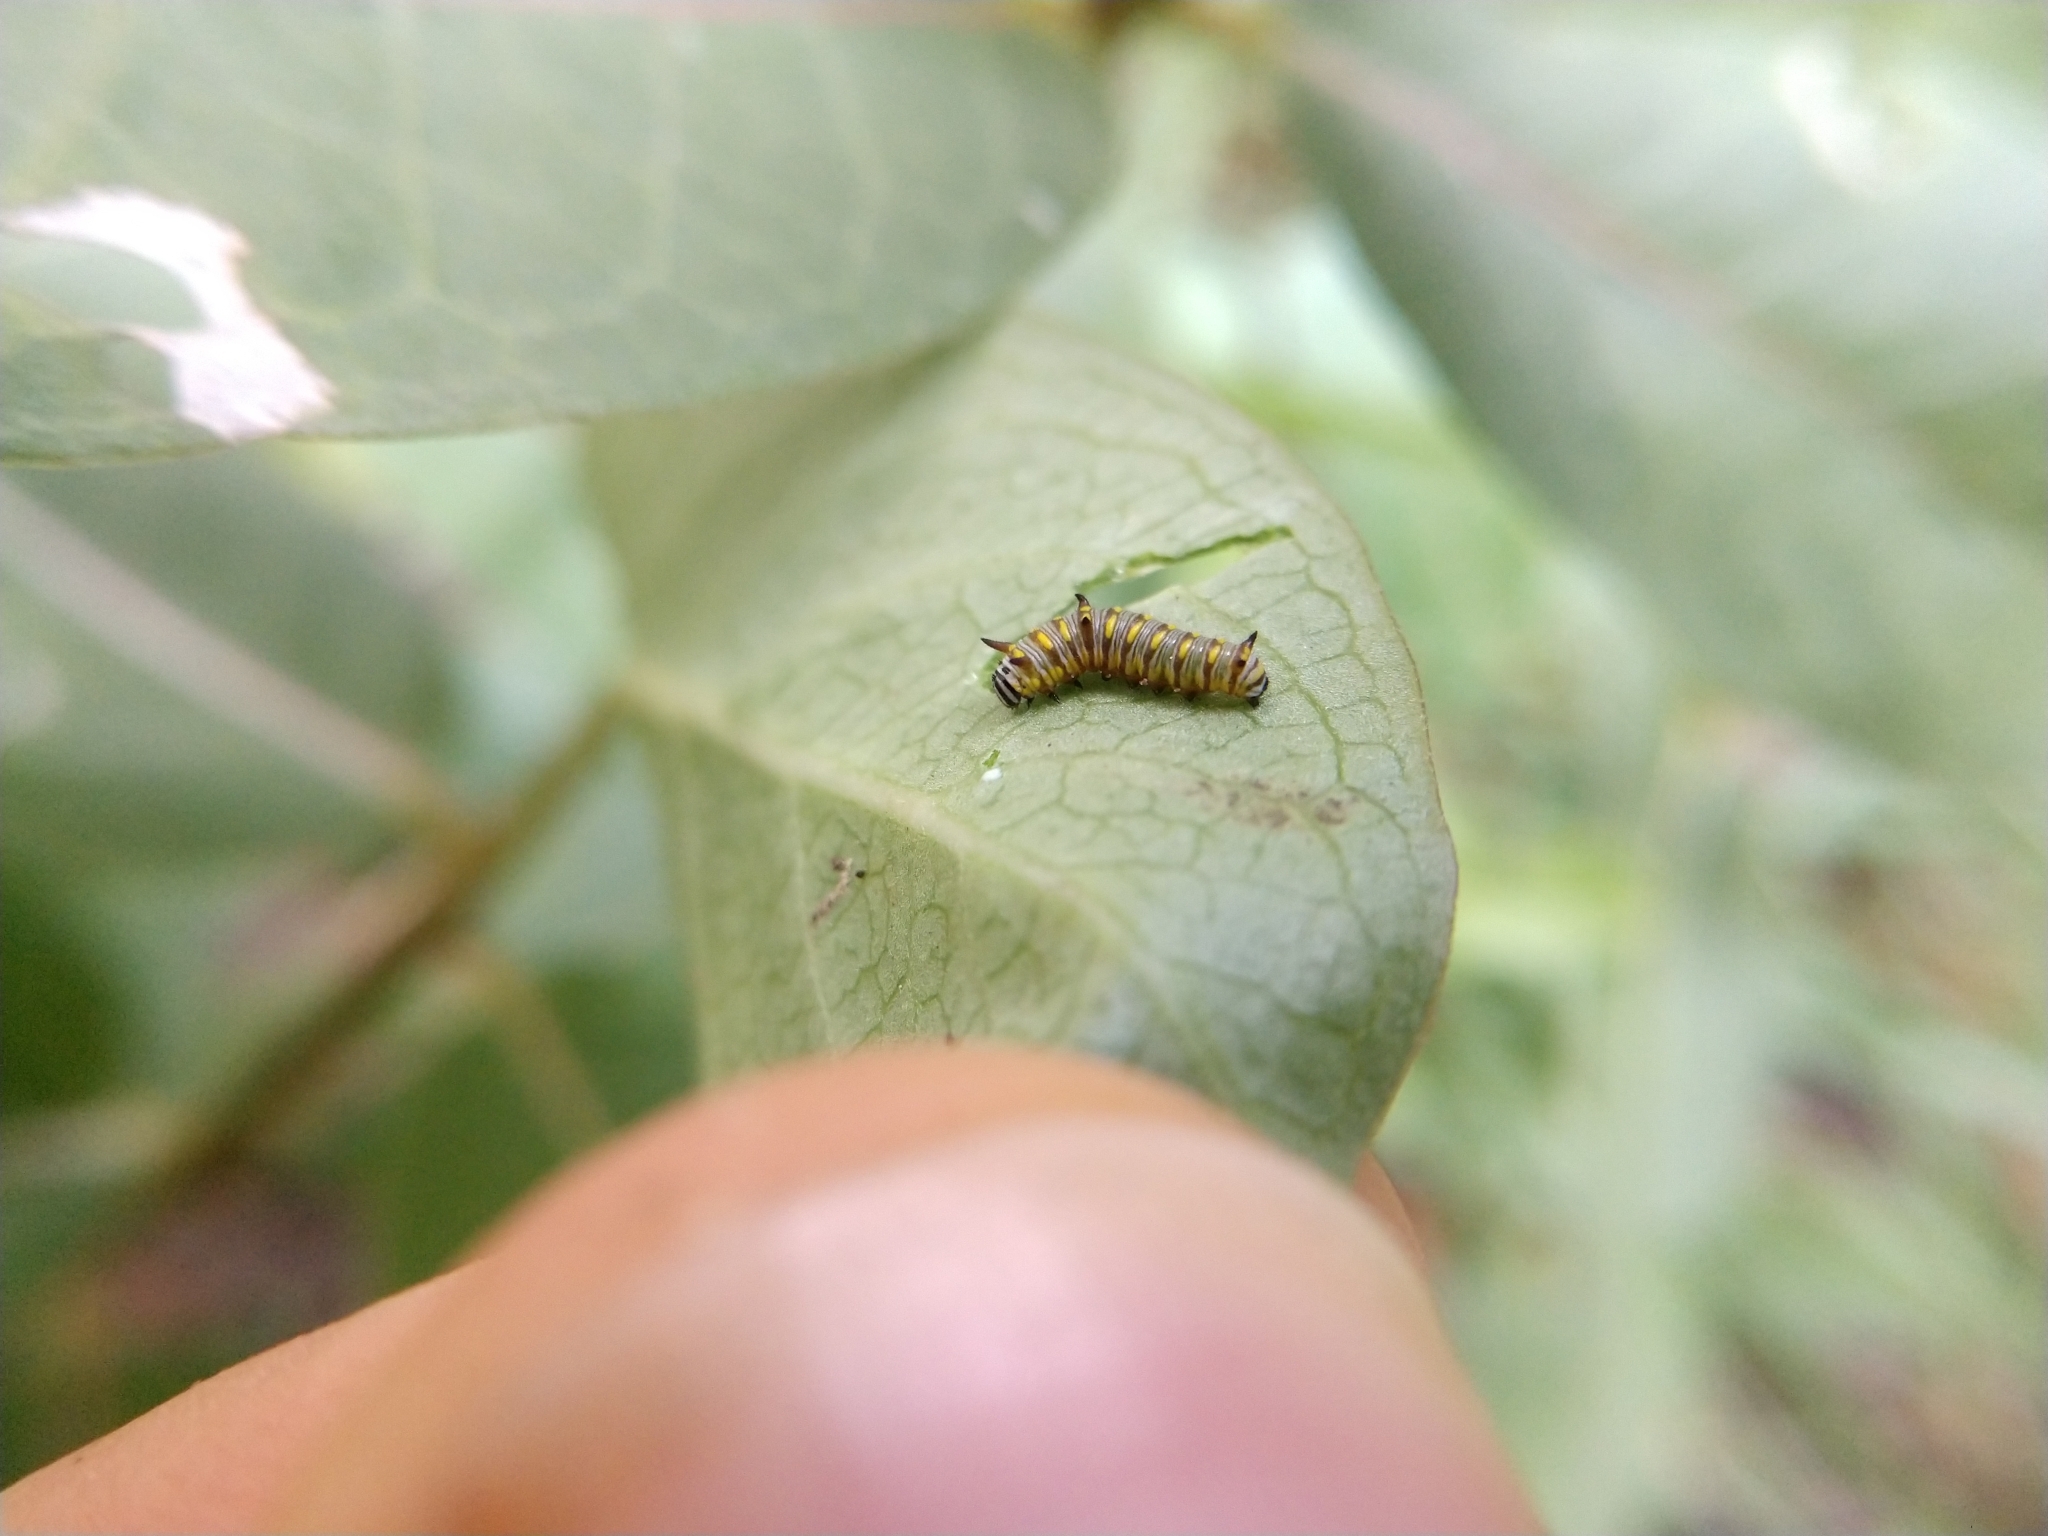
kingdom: Animalia
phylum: Arthropoda
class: Insecta
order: Lepidoptera
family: Nymphalidae
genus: Danaus
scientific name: Danaus gilippus
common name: Queen
